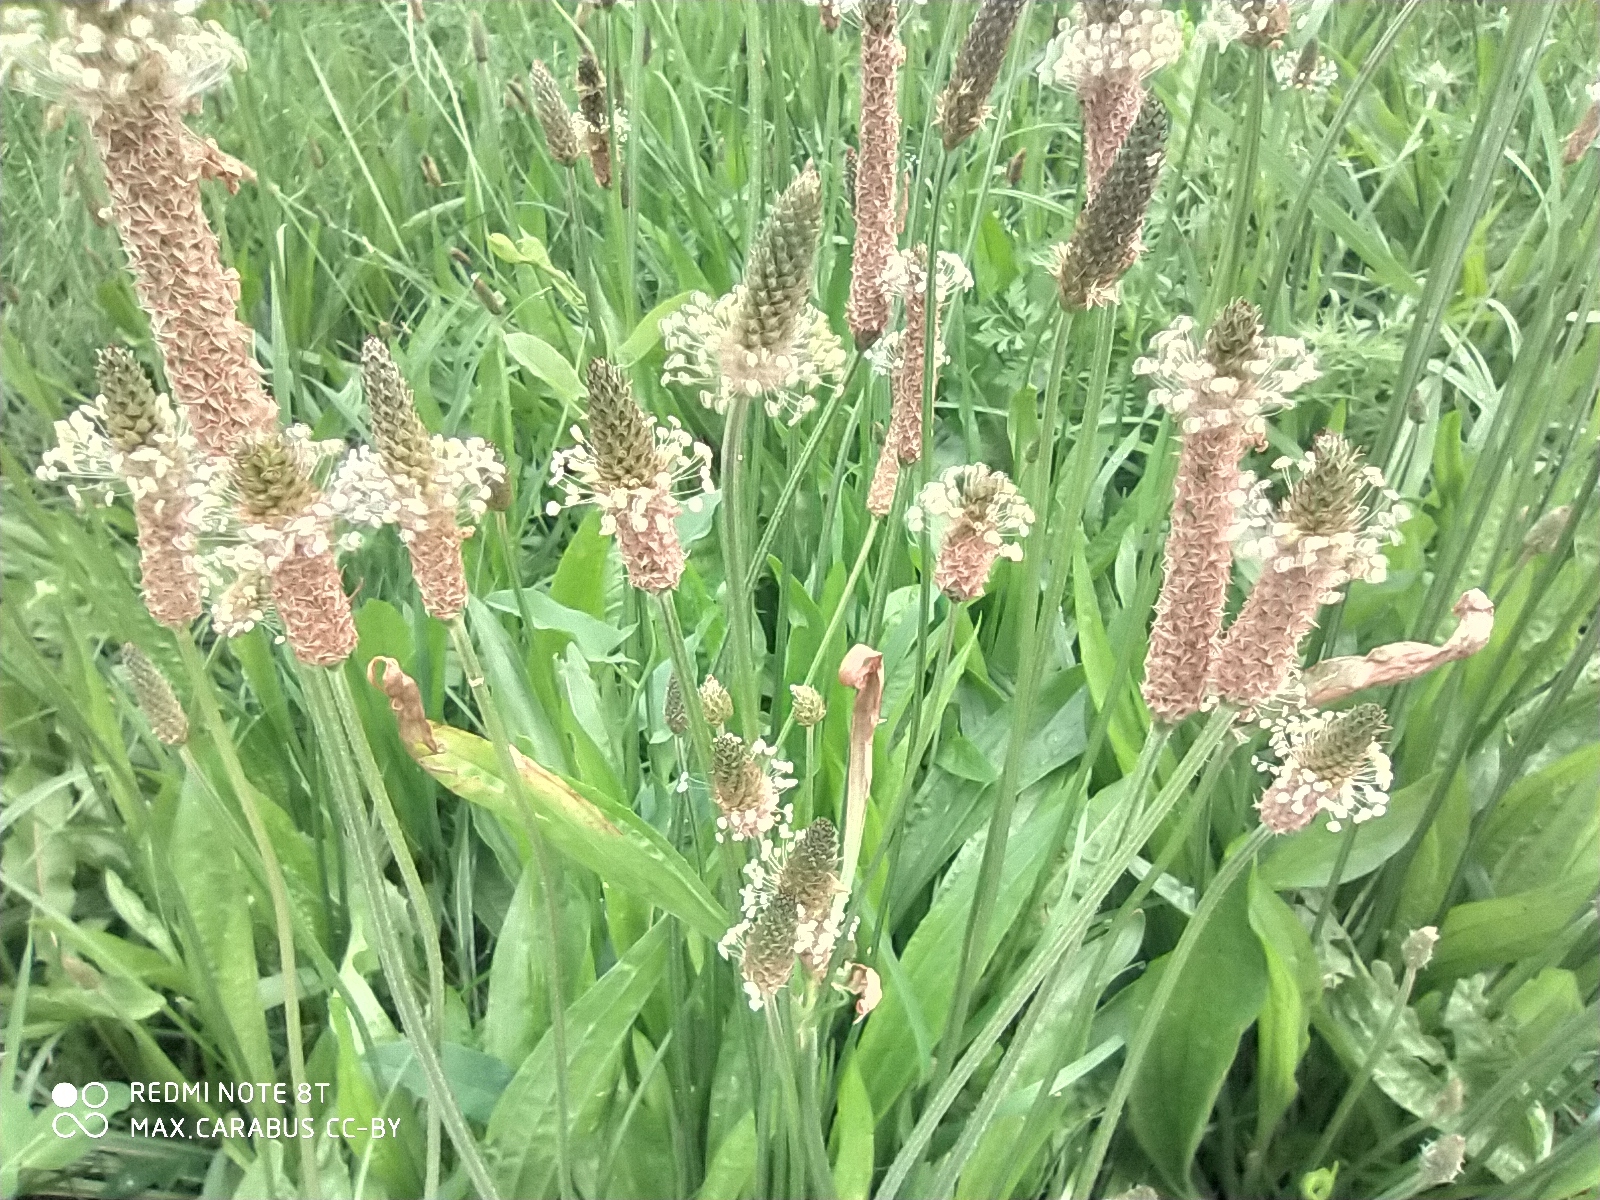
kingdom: Plantae
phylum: Tracheophyta
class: Magnoliopsida
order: Lamiales
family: Plantaginaceae
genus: Plantago
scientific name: Plantago lanceolata
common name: Ribwort plantain
